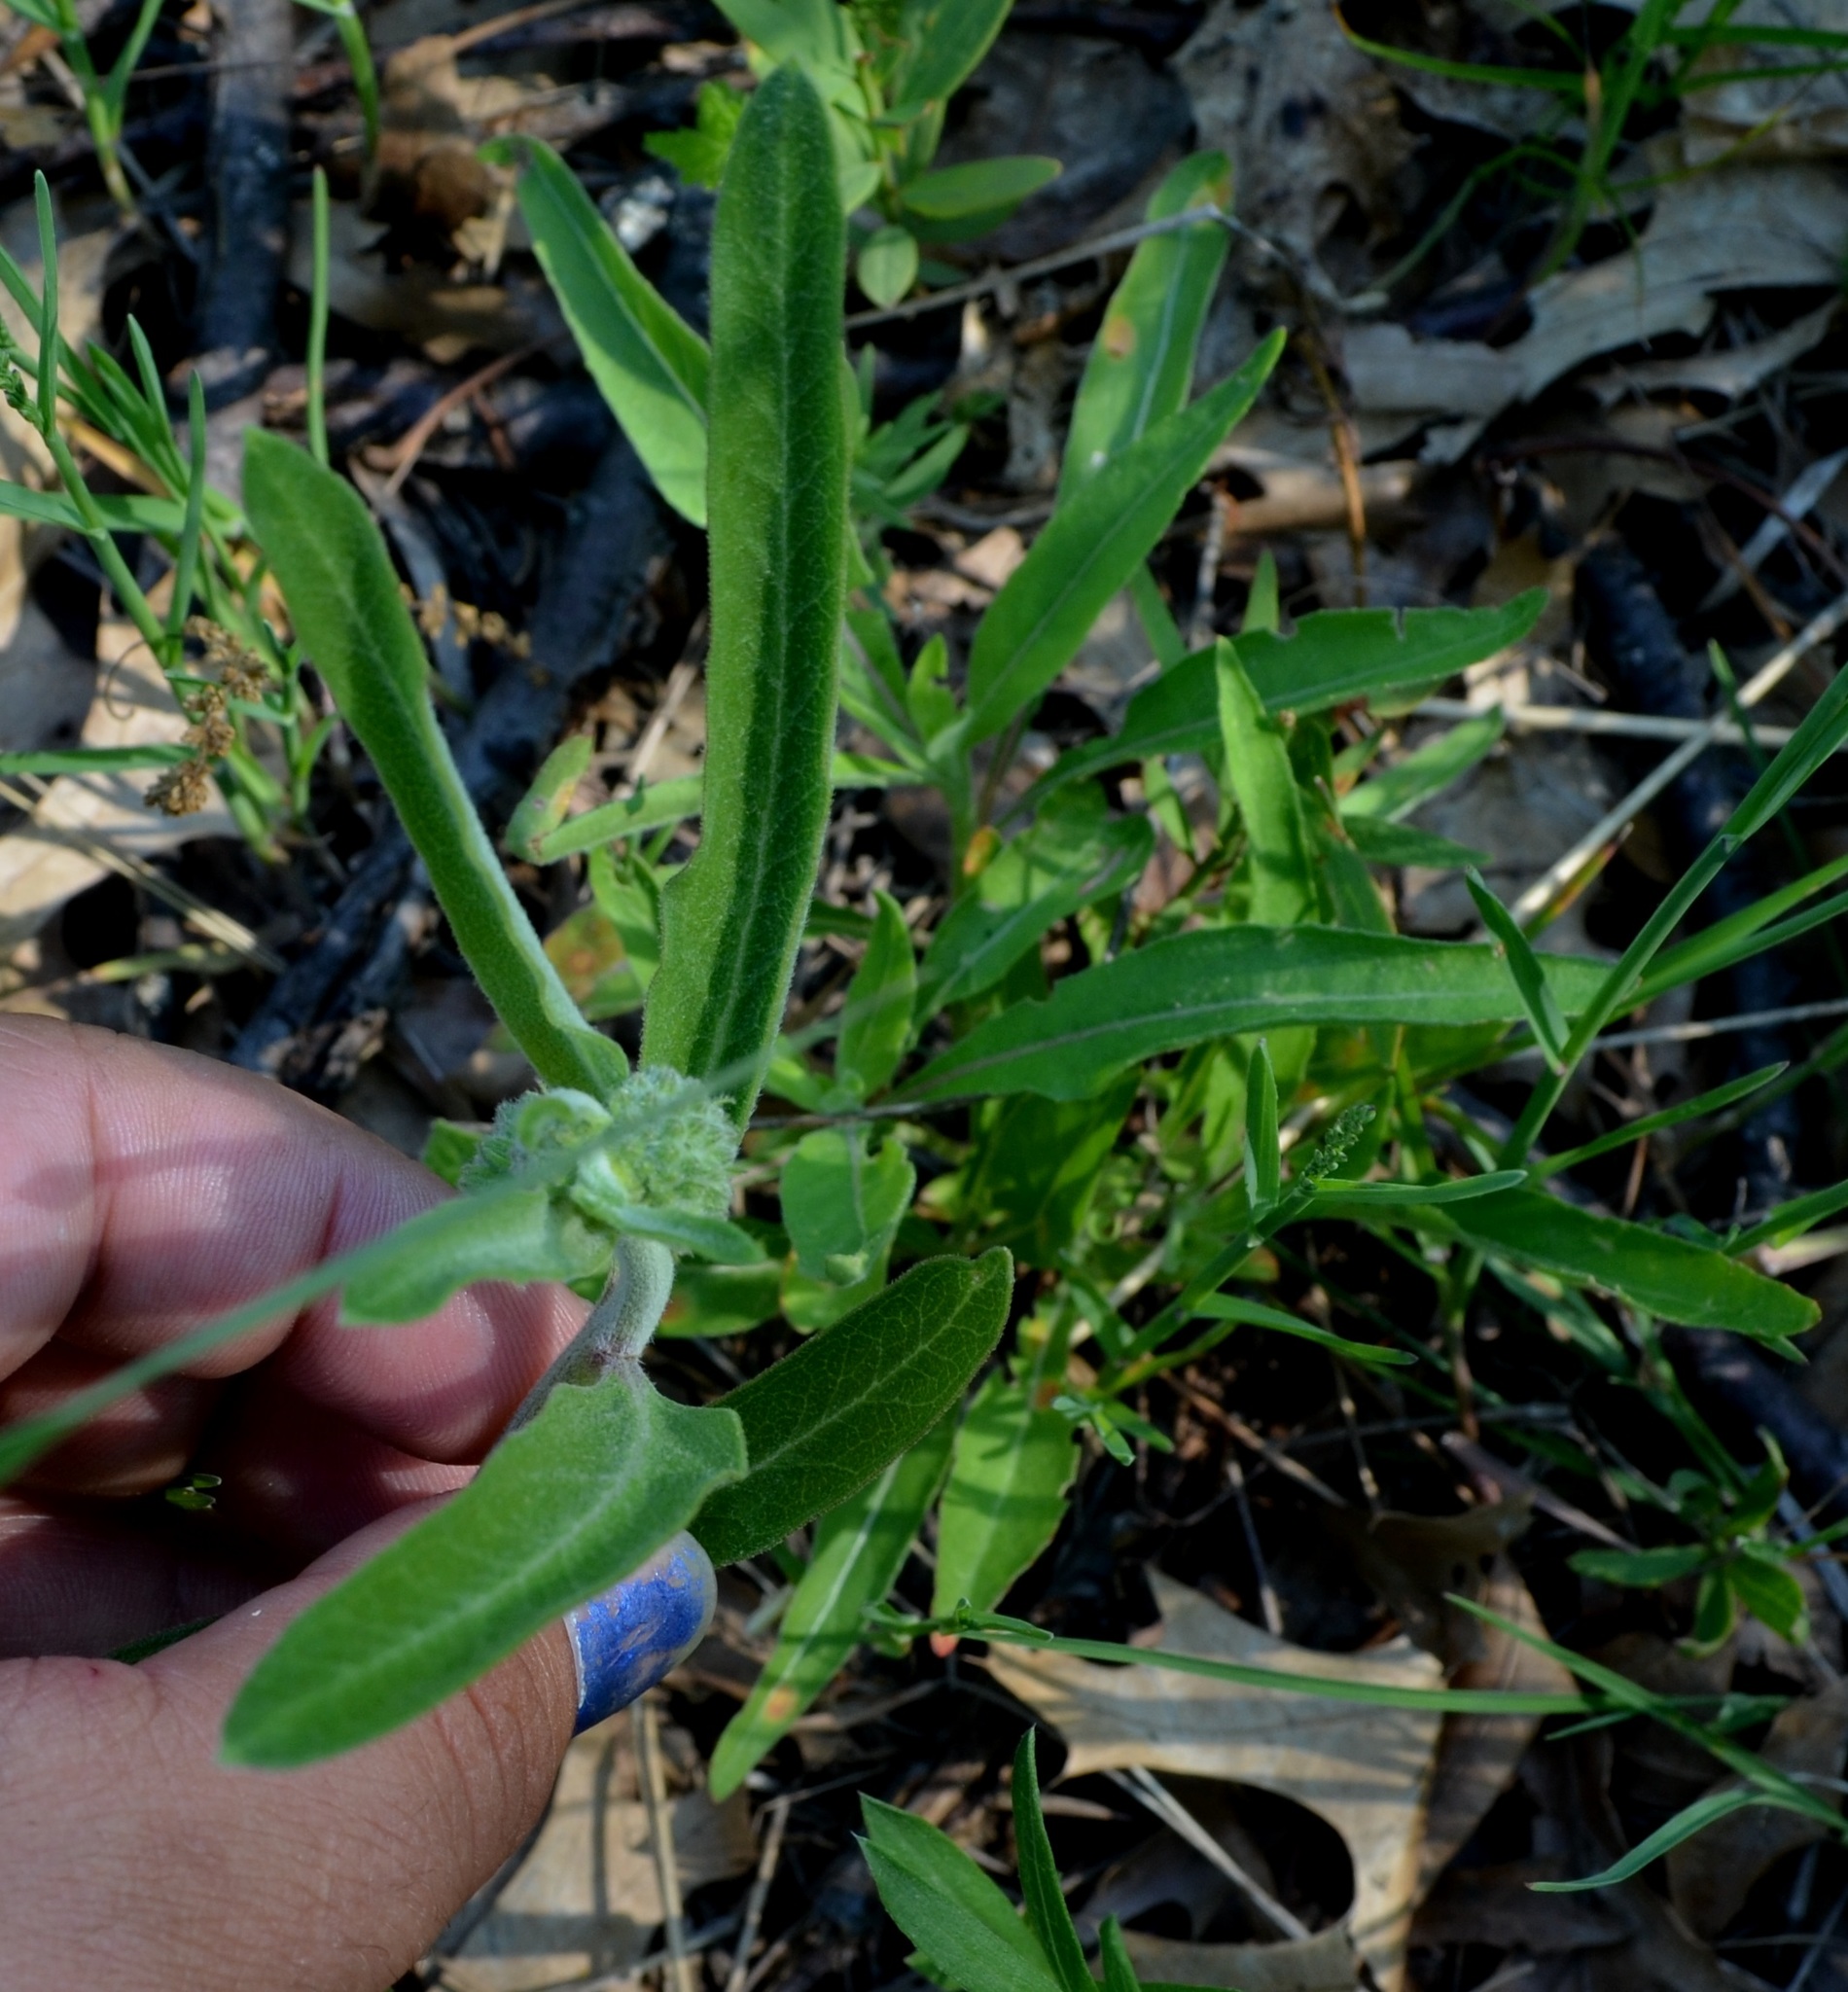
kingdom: Plantae
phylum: Tracheophyta
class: Magnoliopsida
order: Gentianales
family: Apocynaceae
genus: Asclepias
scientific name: Asclepias viridiflora
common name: Green comet milkweed
